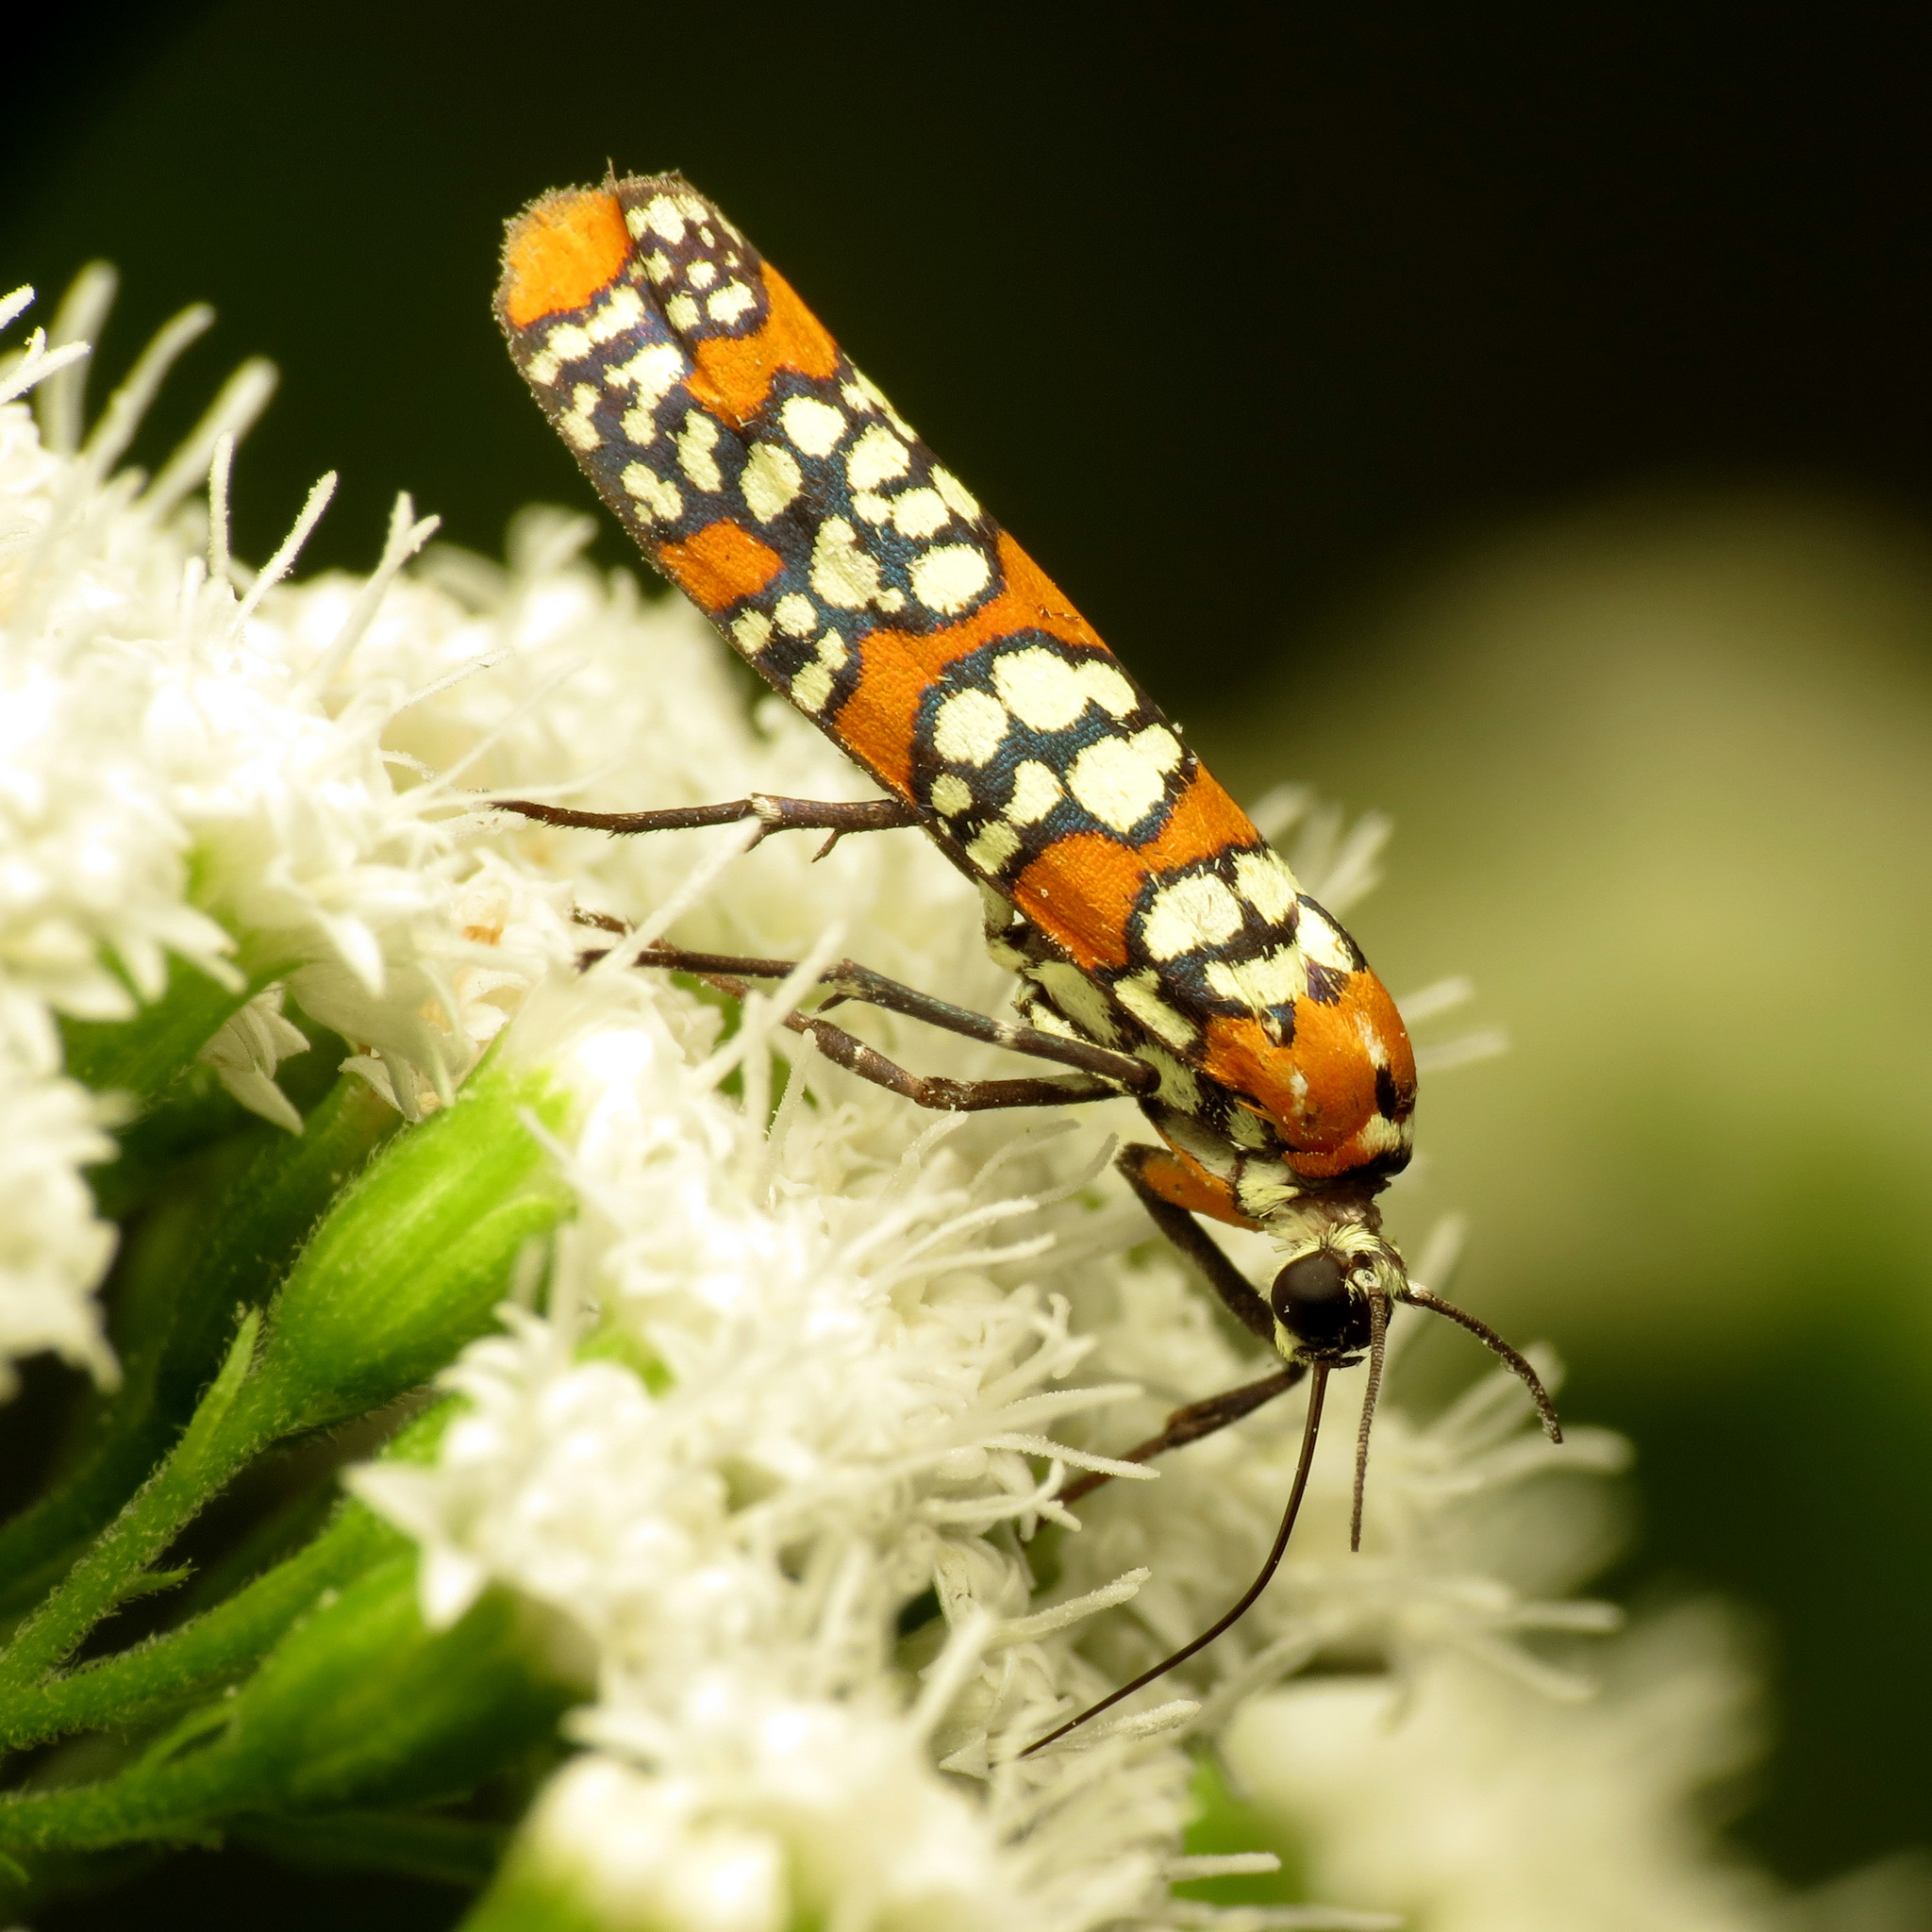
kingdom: Animalia
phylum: Arthropoda
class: Insecta
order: Lepidoptera
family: Attevidae
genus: Atteva
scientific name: Atteva punctella
